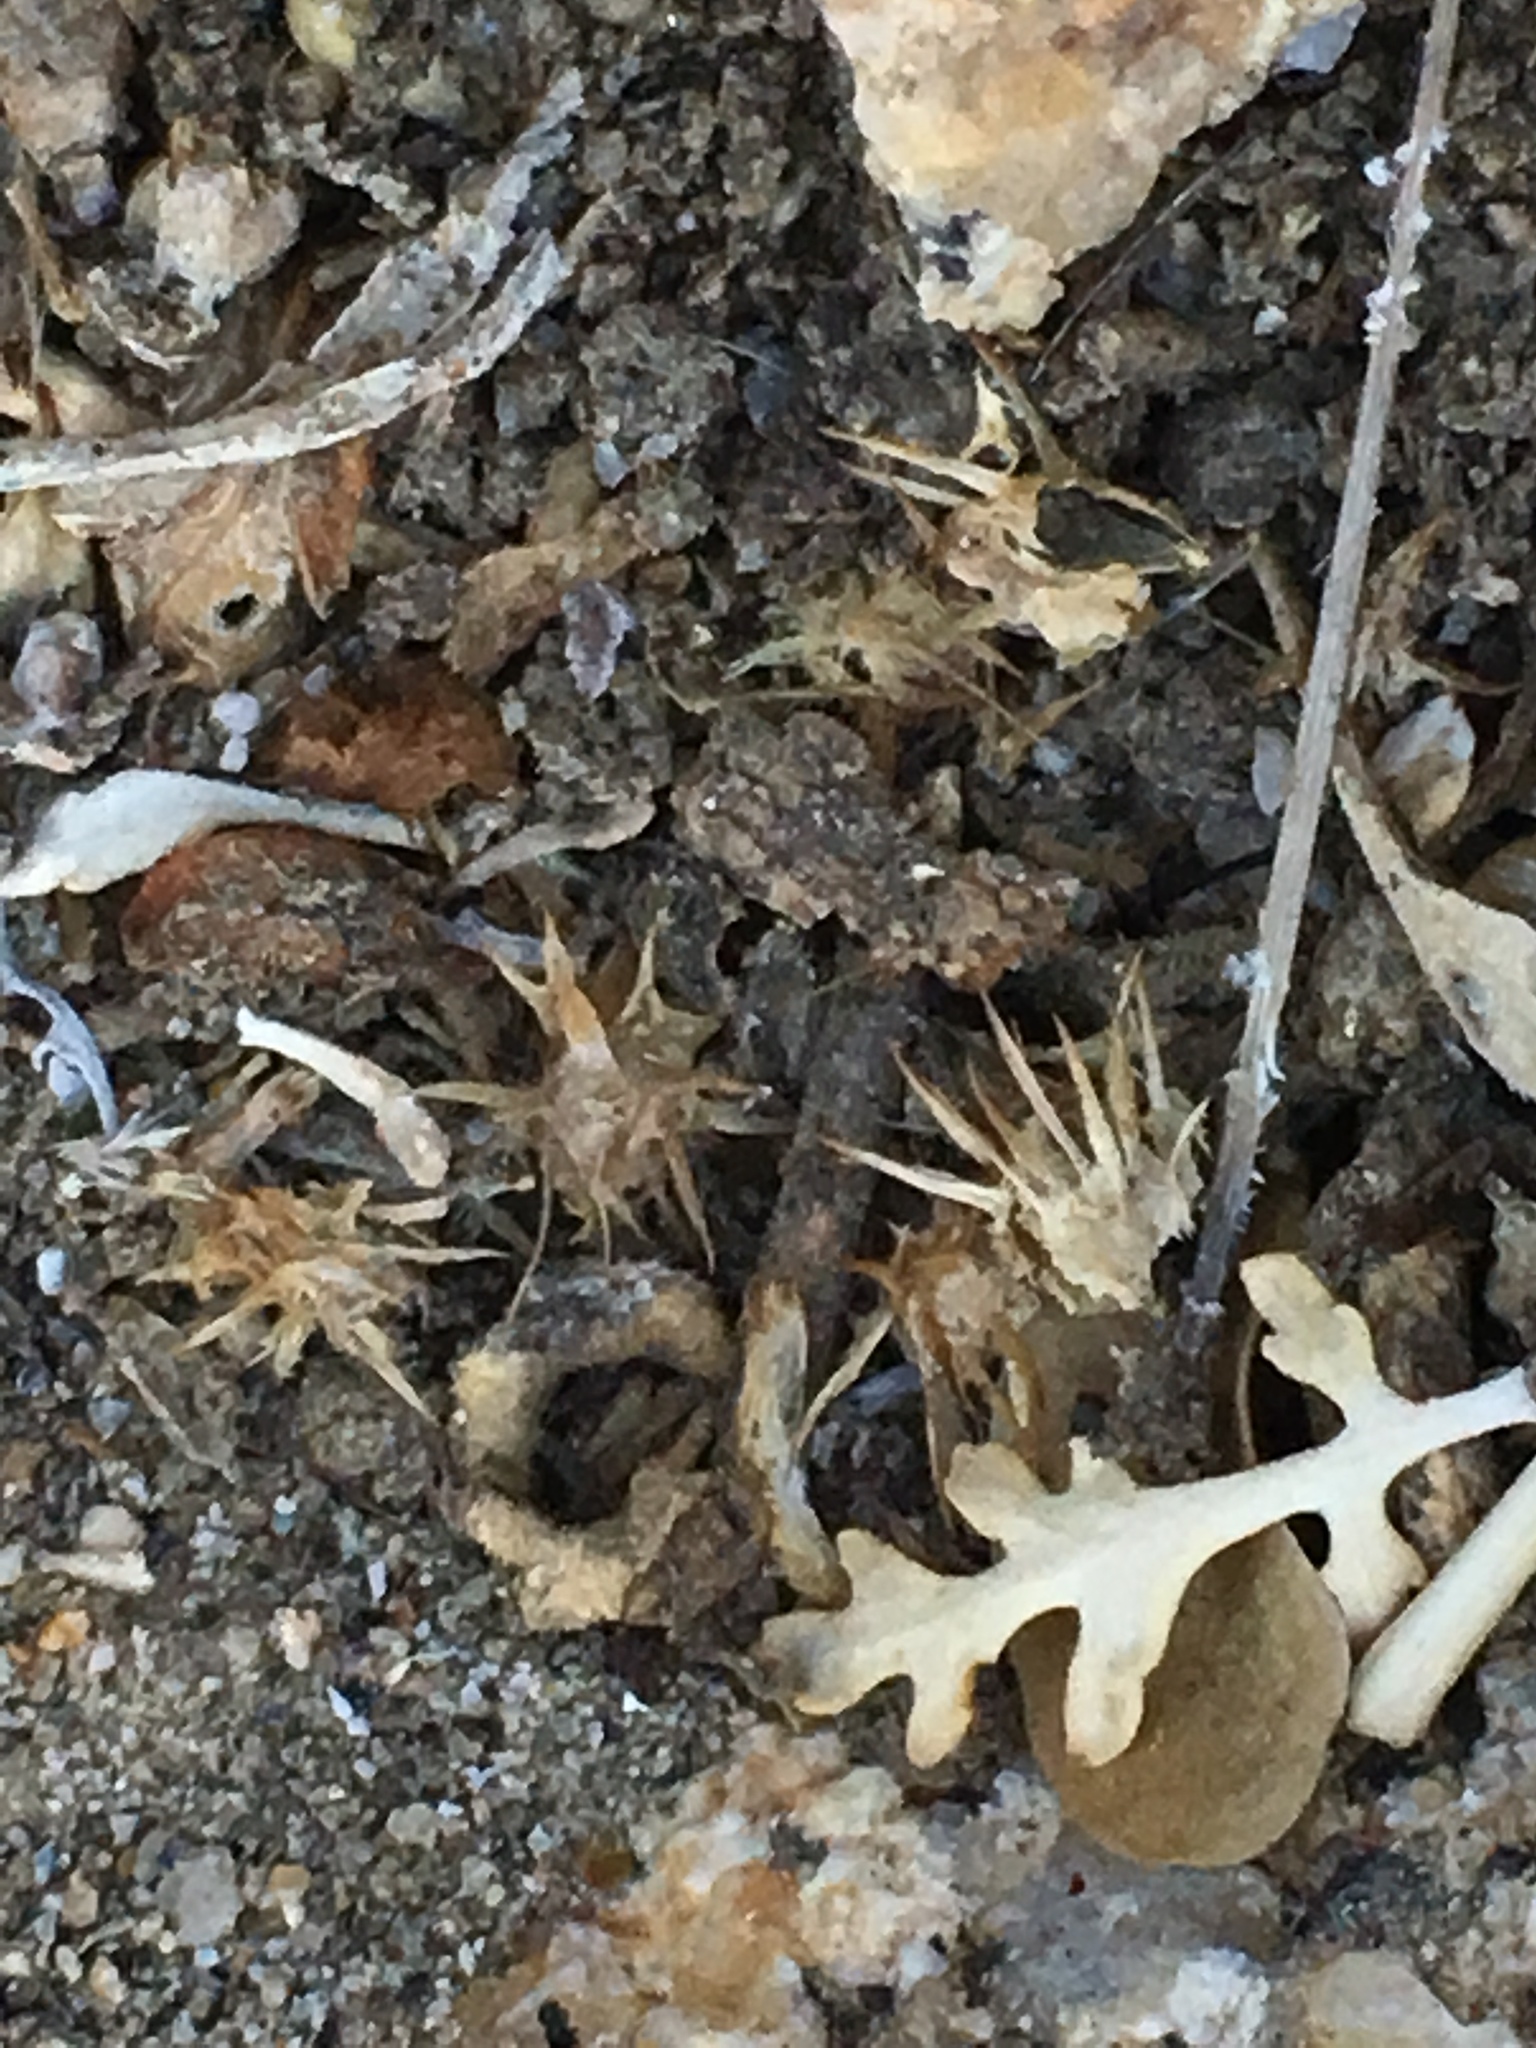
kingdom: Plantae
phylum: Tracheophyta
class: Magnoliopsida
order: Asterales
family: Asteraceae
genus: Ambrosia
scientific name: Ambrosia dumosa
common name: Bur-sage
